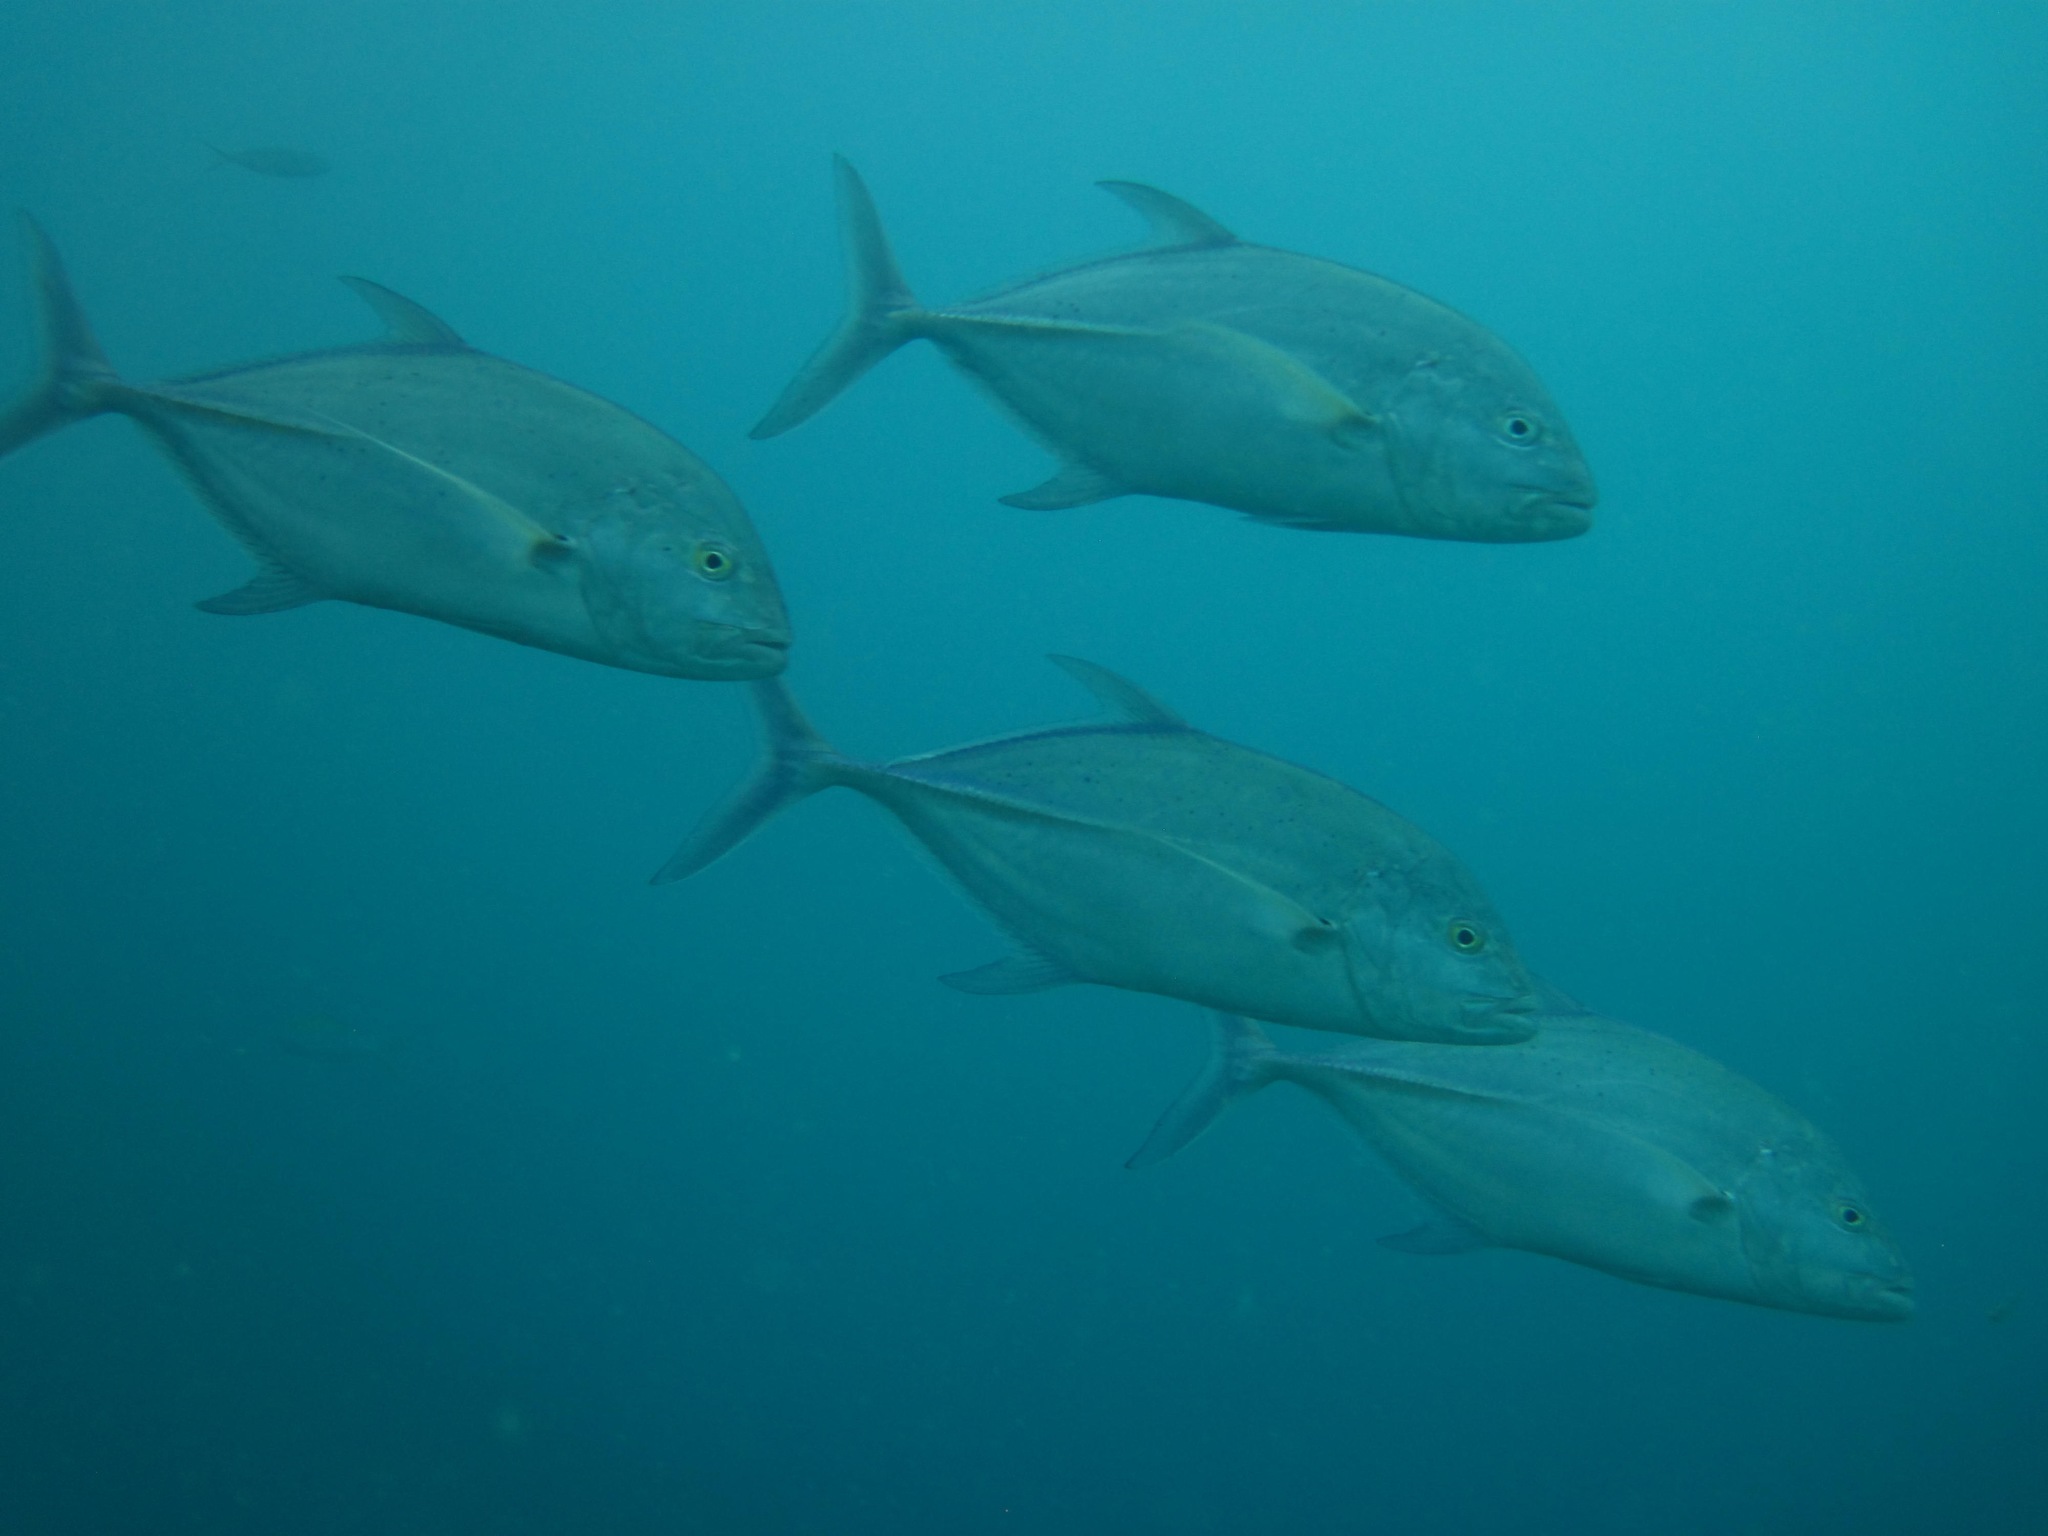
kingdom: Animalia
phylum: Chordata
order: Perciformes
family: Carangidae
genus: Caranx
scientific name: Caranx melampygus
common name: Bluefin trevally
